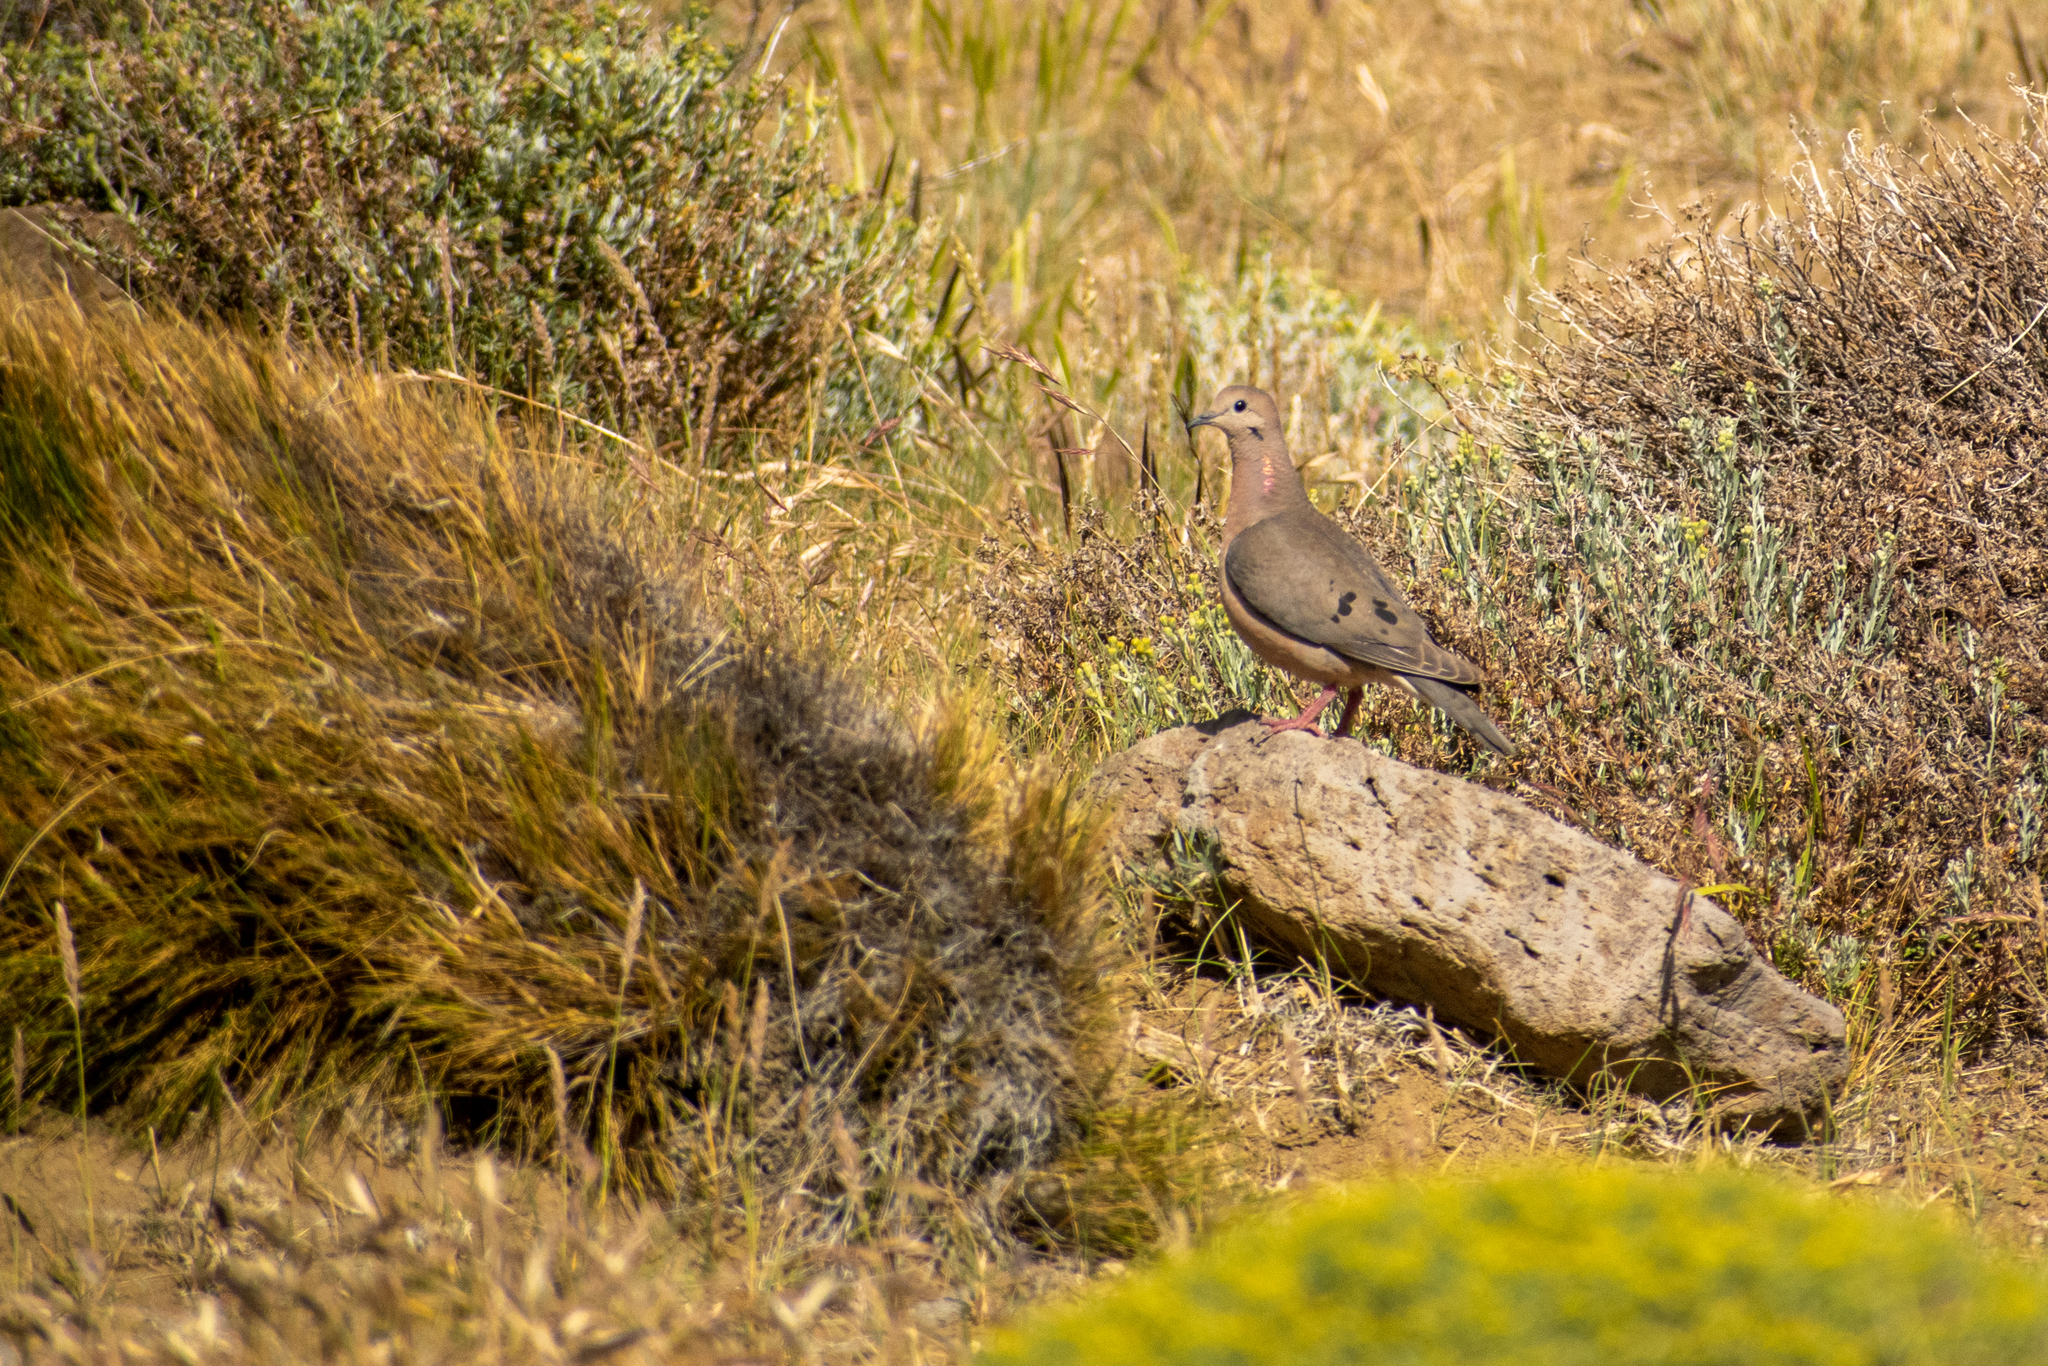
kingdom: Animalia
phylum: Chordata
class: Aves
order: Columbiformes
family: Columbidae
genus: Zenaida
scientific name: Zenaida auriculata
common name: Eared dove
